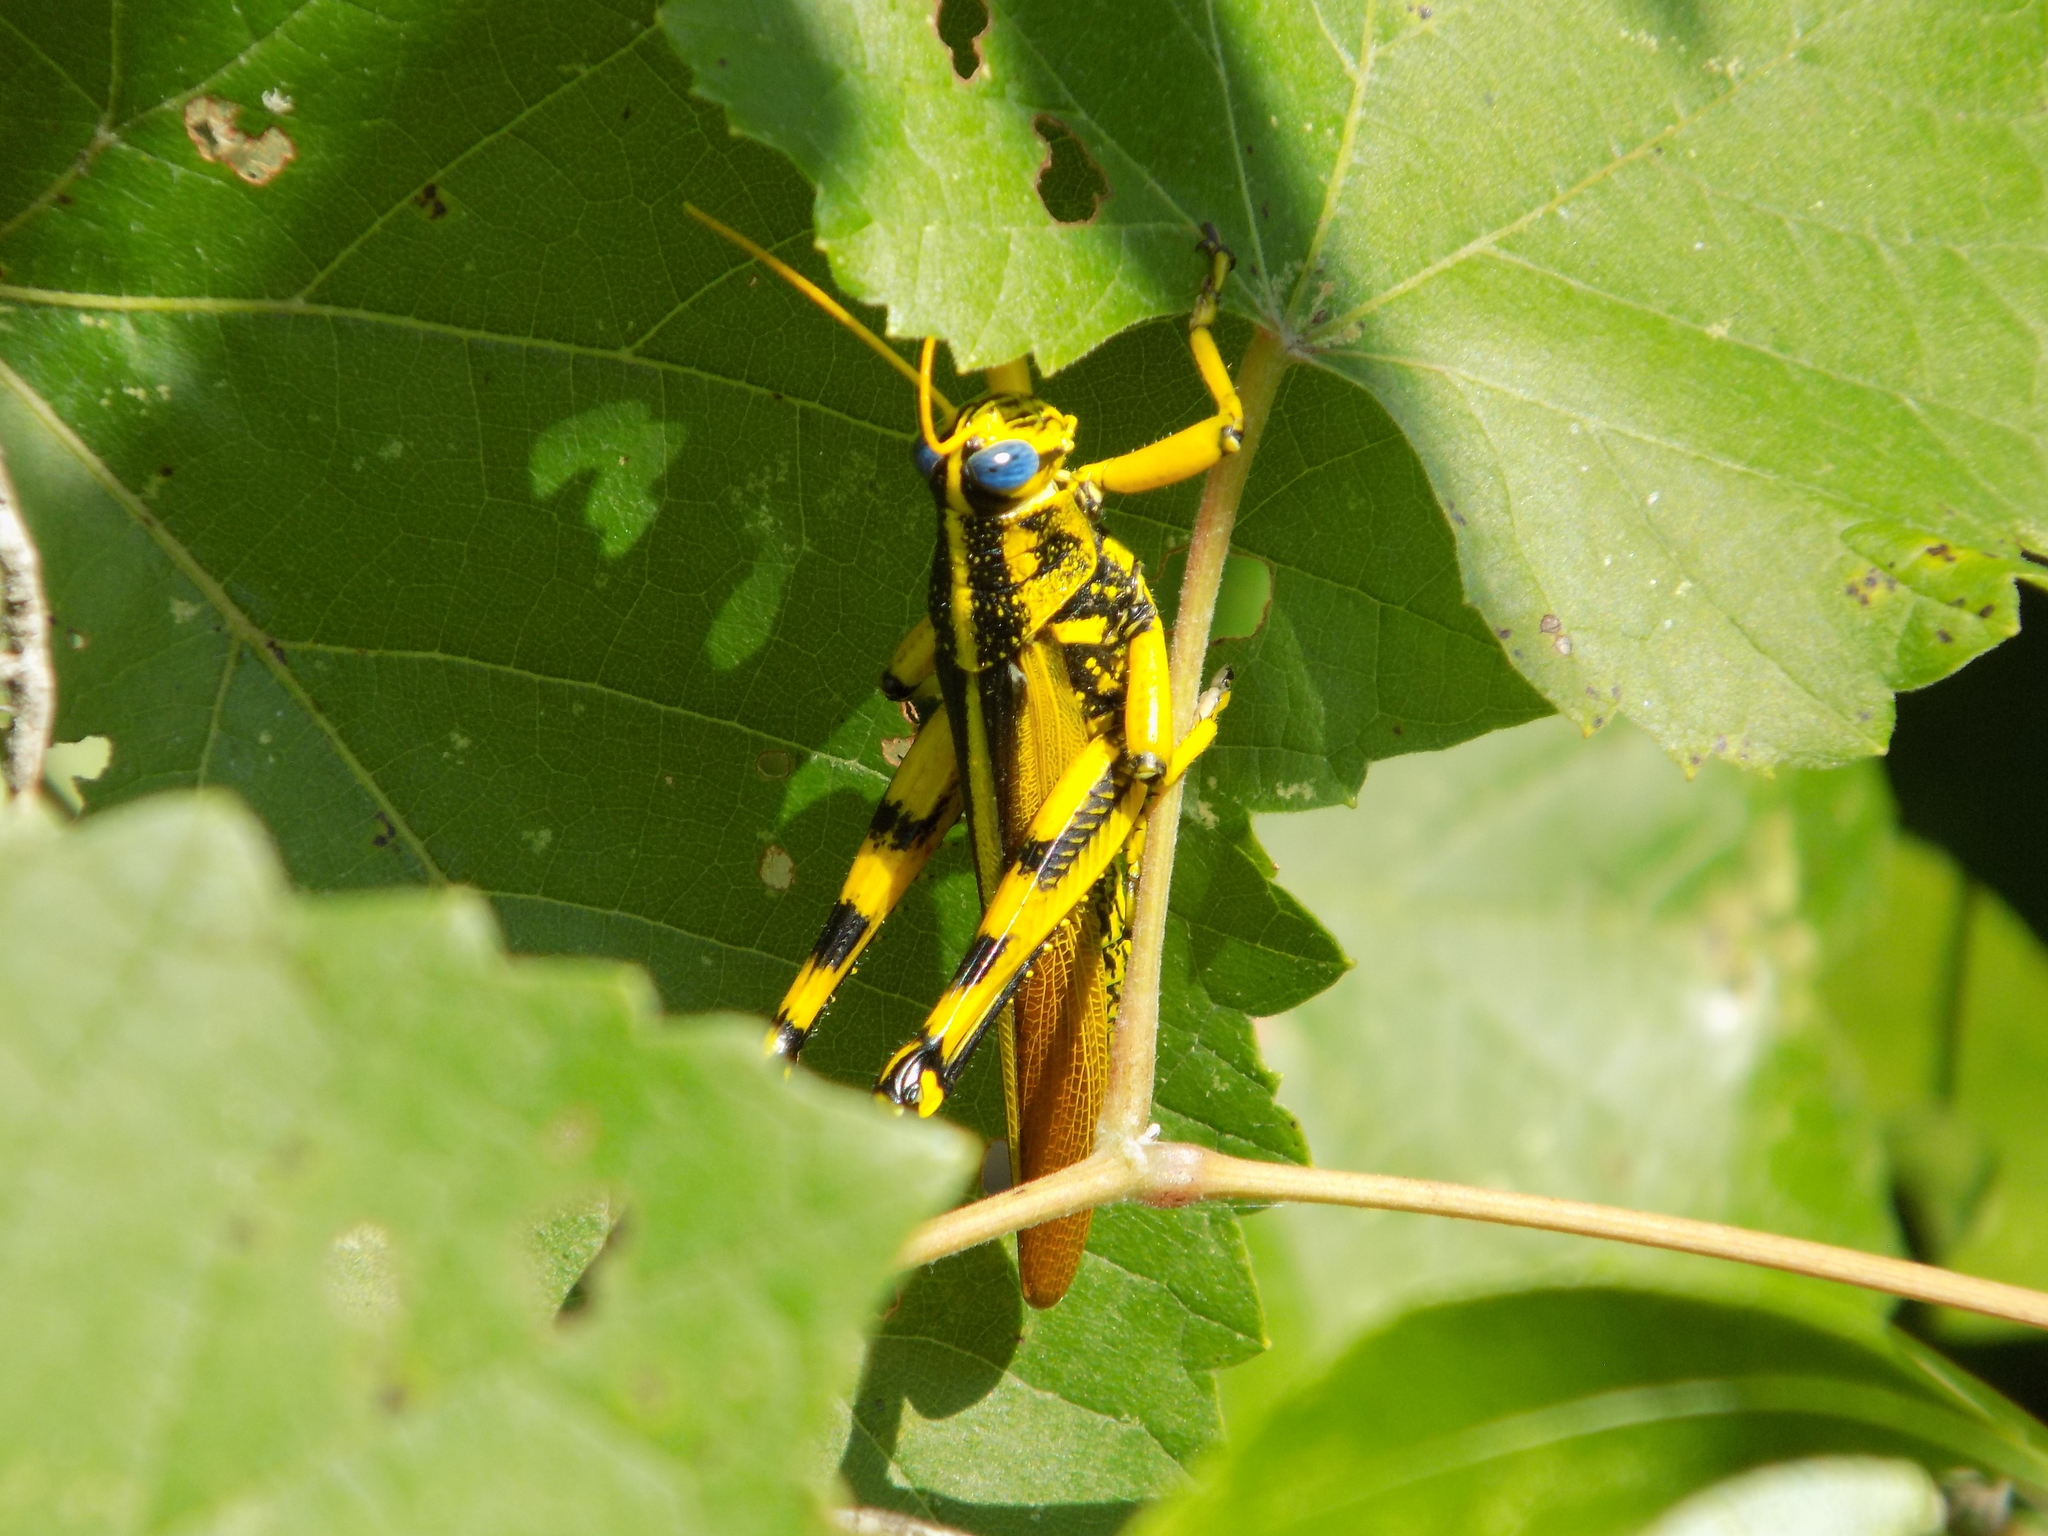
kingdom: Animalia
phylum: Arthropoda
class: Insecta
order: Orthoptera
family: Acrididae
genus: Schistocerca
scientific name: Schistocerca lineata
